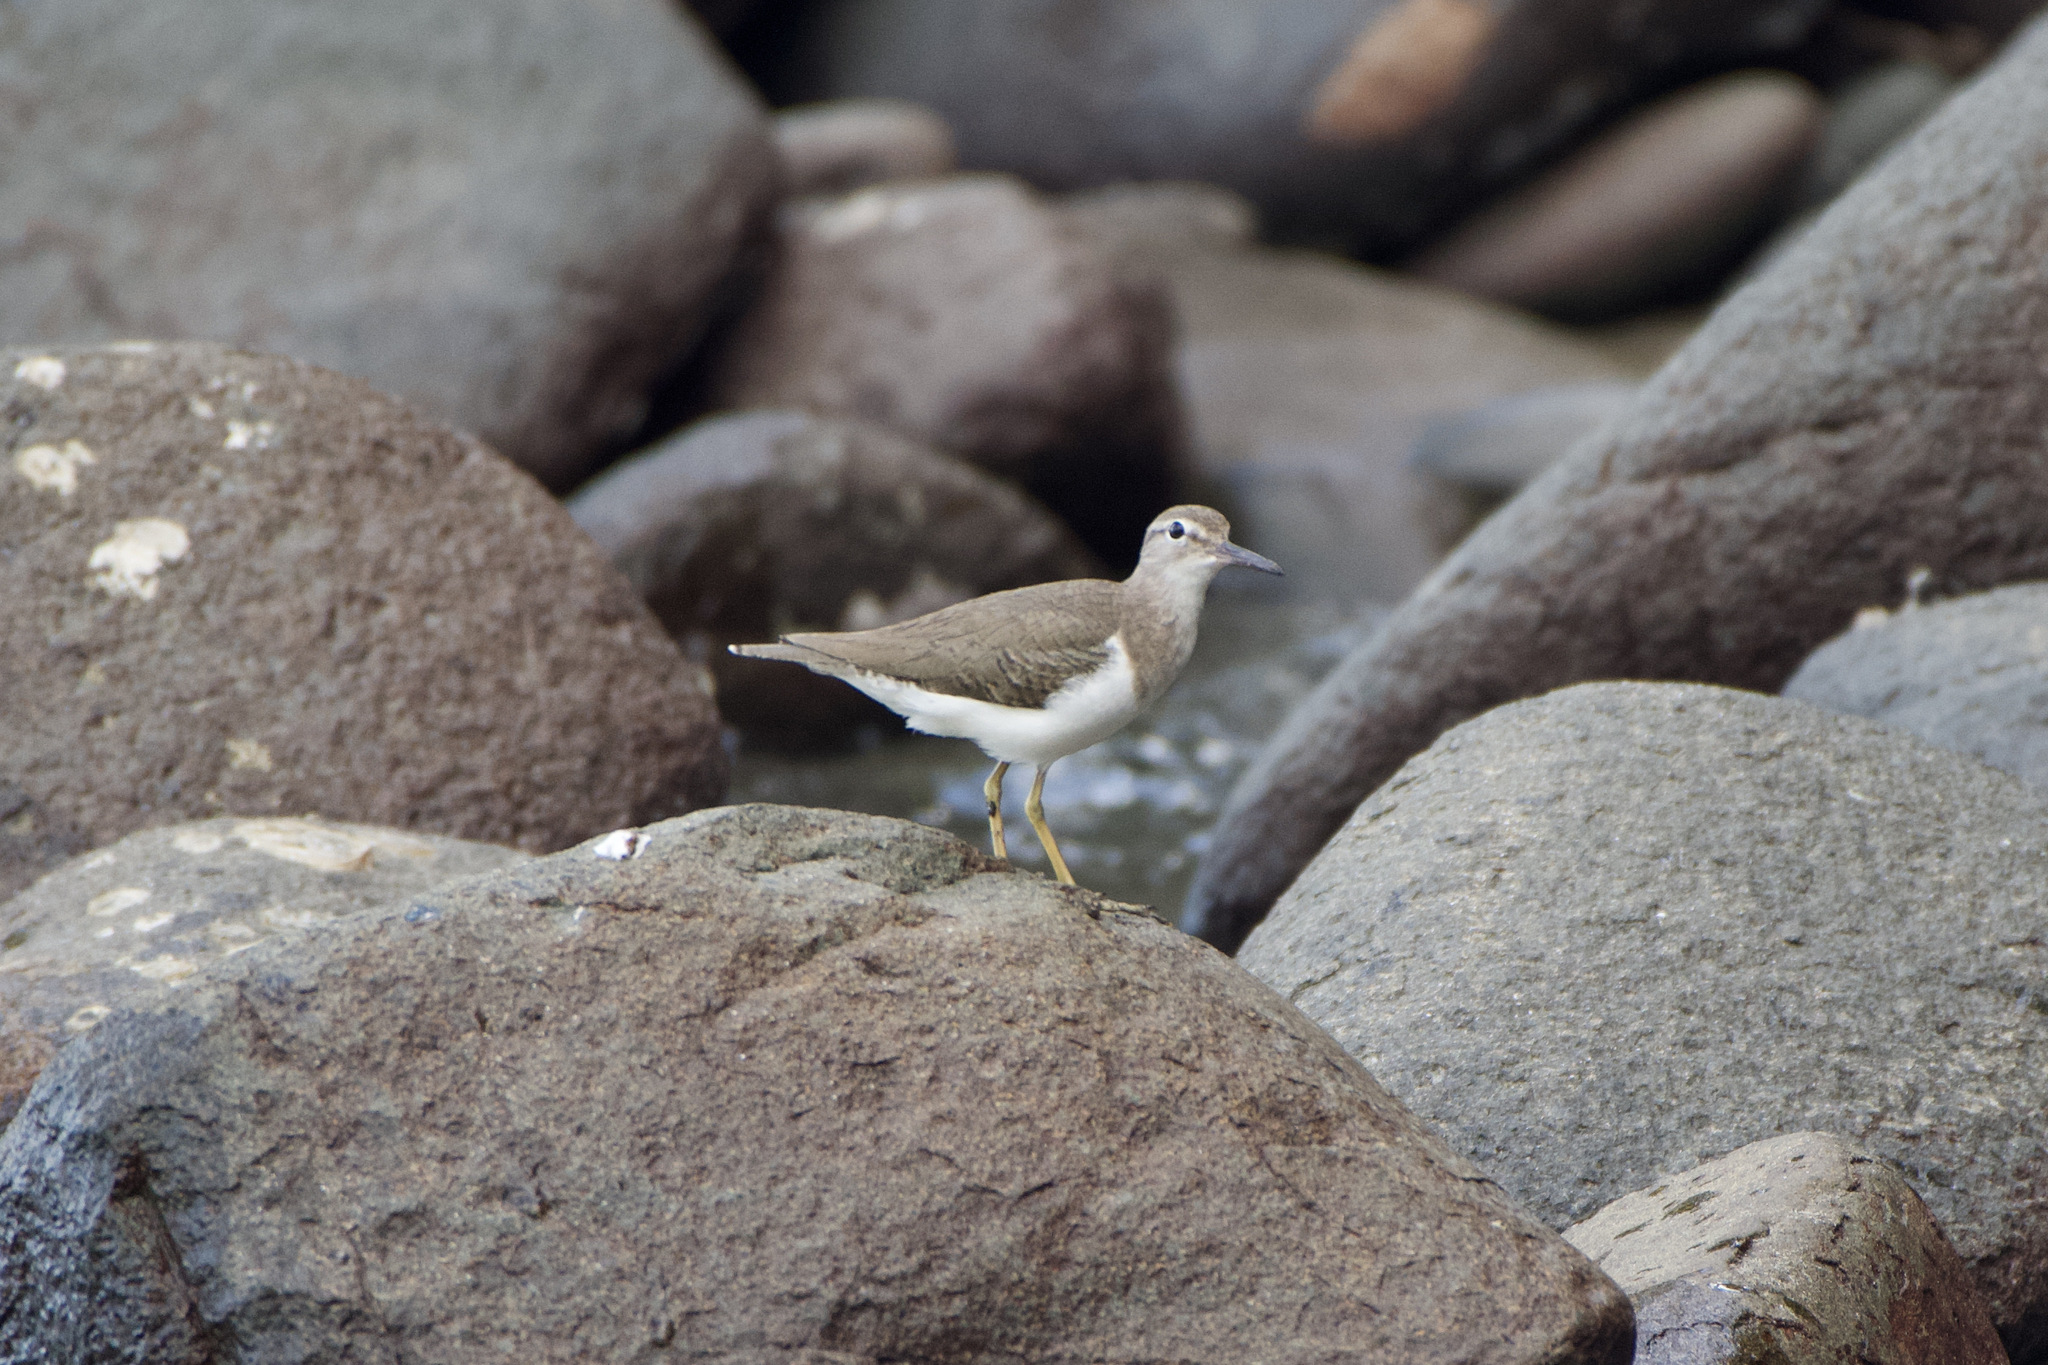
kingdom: Animalia
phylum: Chordata
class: Aves
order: Charadriiformes
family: Scolopacidae
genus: Actitis
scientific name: Actitis macularius
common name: Spotted sandpiper
